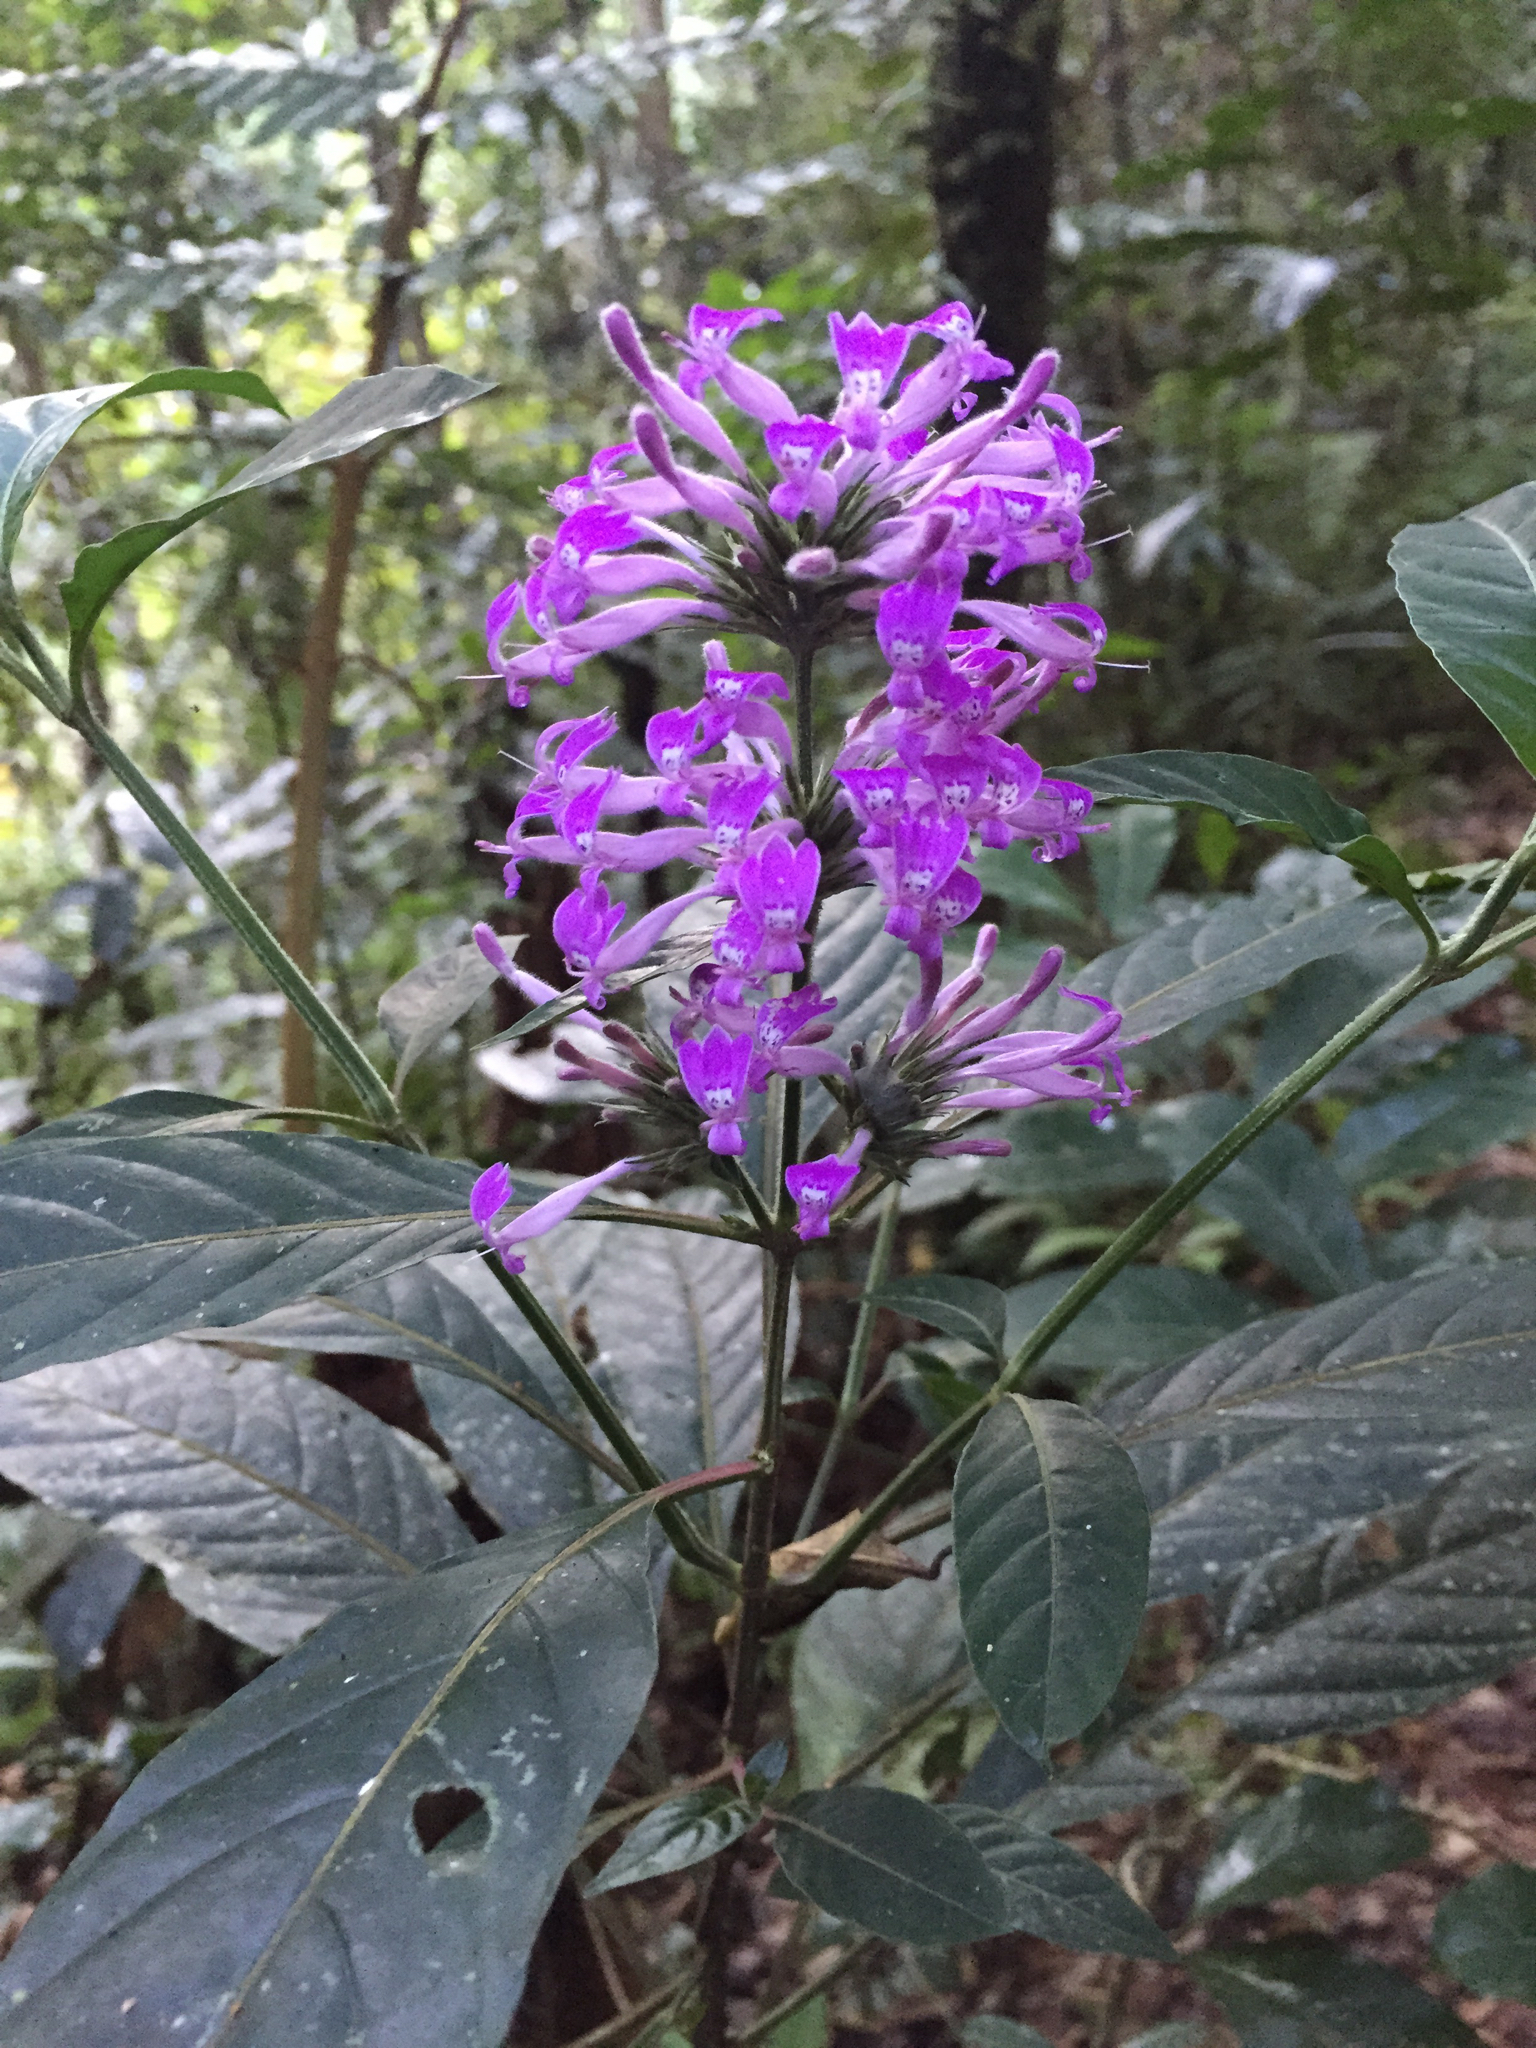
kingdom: Plantae
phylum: Tracheophyta
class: Magnoliopsida
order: Lamiales
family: Acanthaceae
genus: Hypoestes
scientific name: Hypoestes longituba
